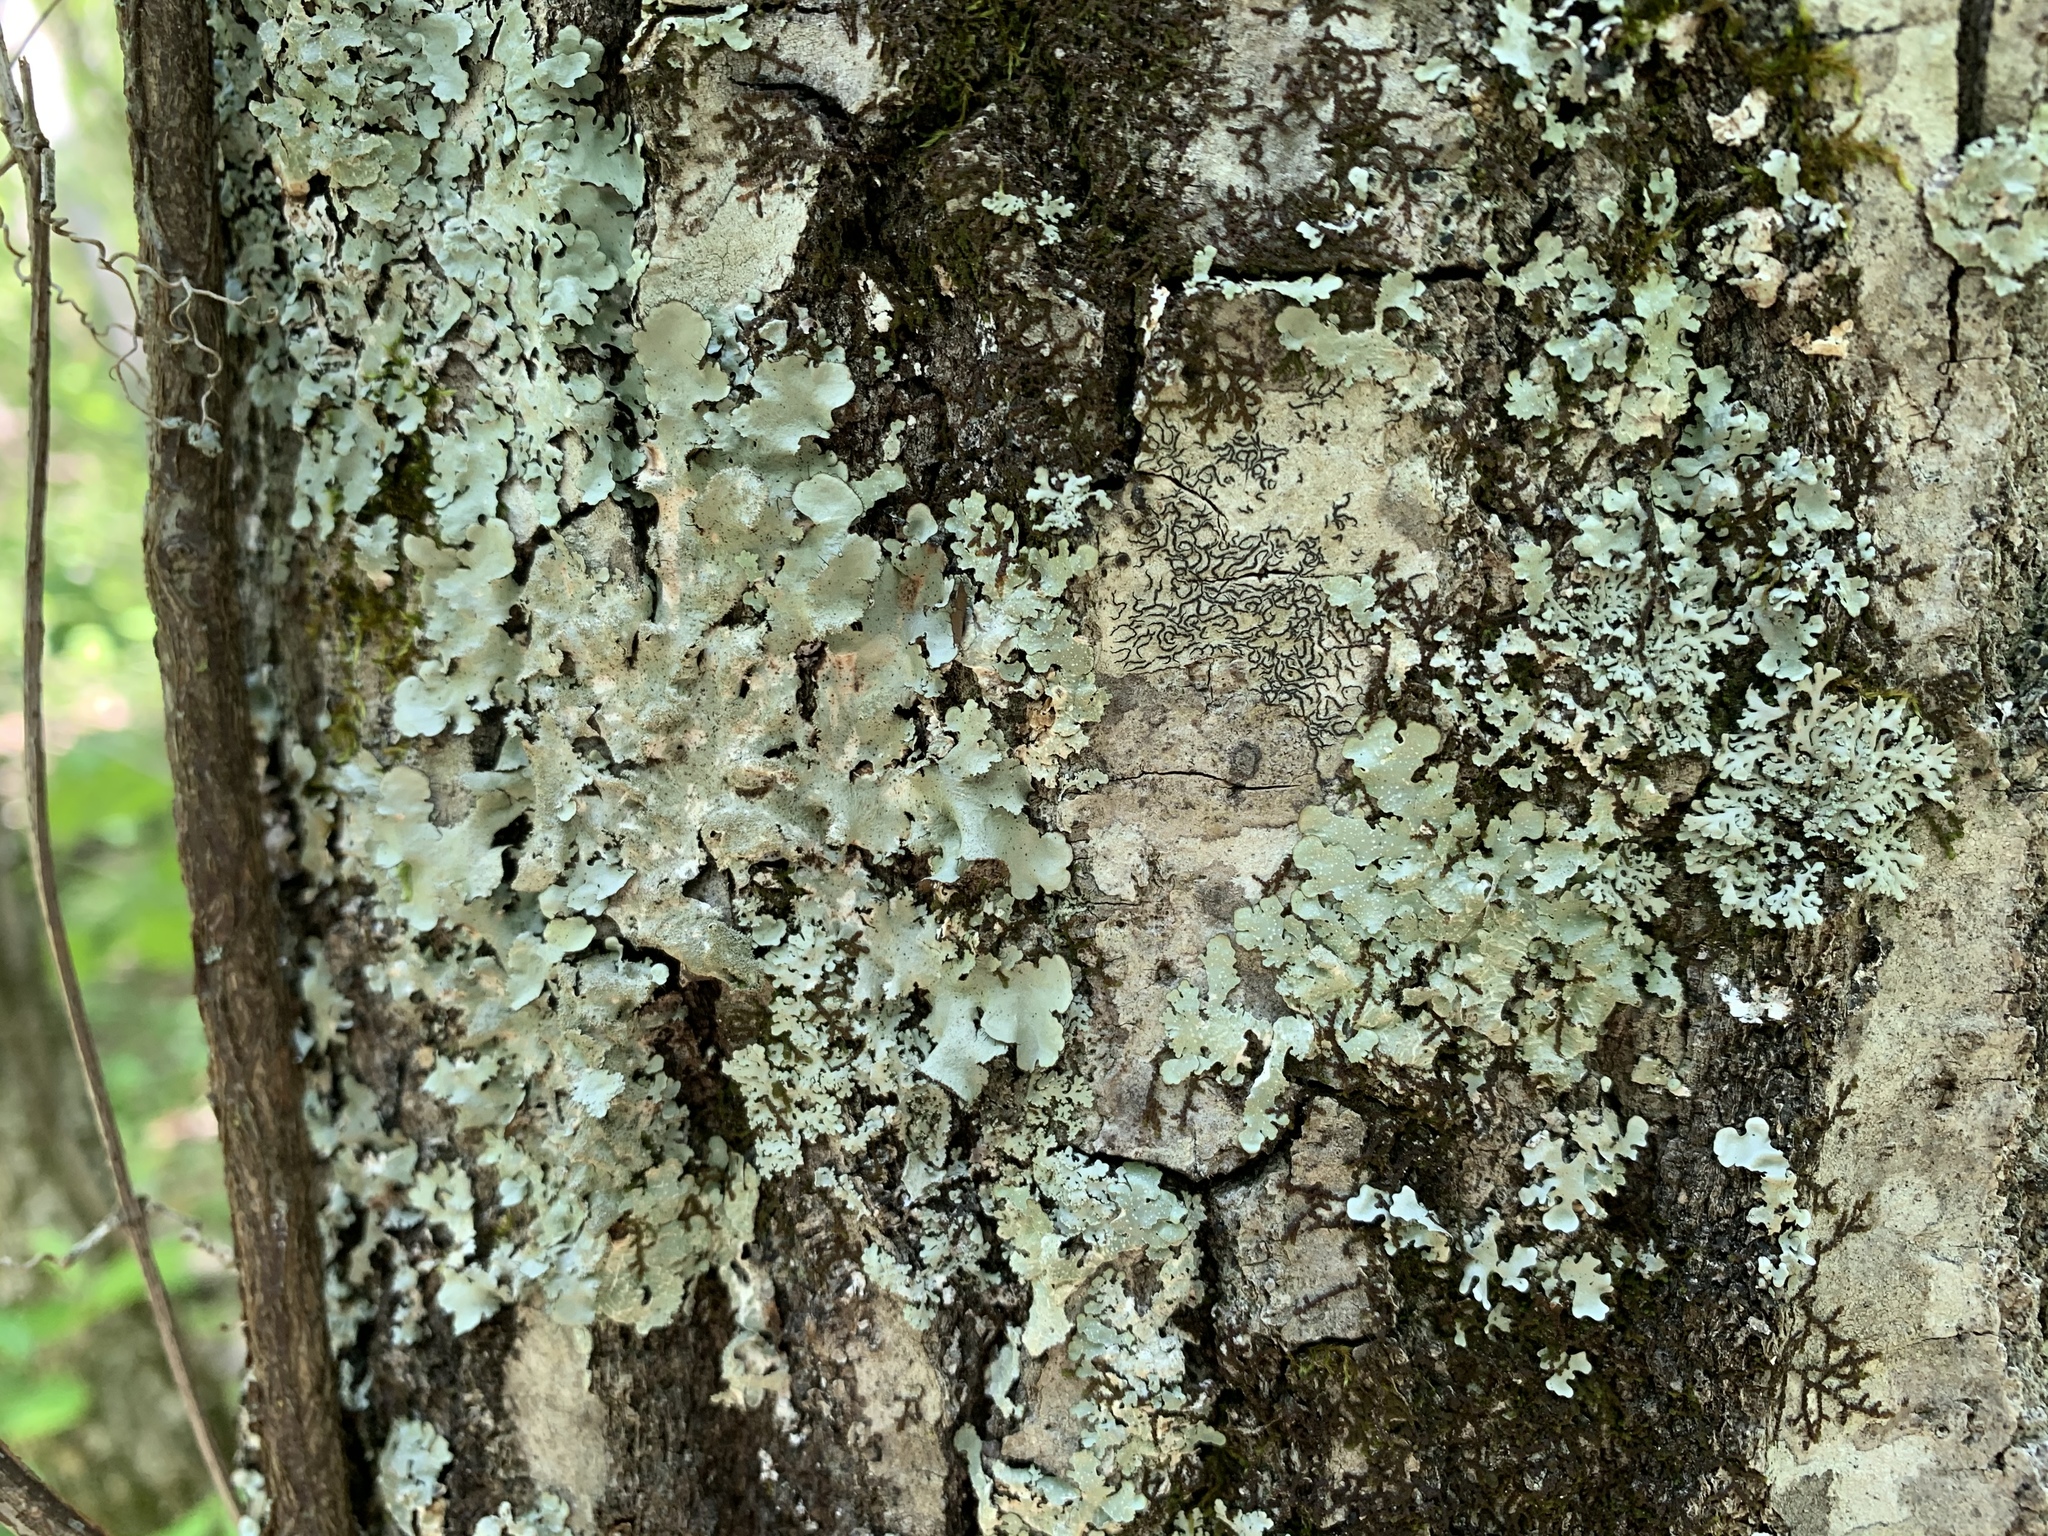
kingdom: Fungi
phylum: Ascomycota
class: Lecanoromycetes
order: Ostropales
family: Graphidaceae
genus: Graphis
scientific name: Graphis scripta
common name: Script lichen
